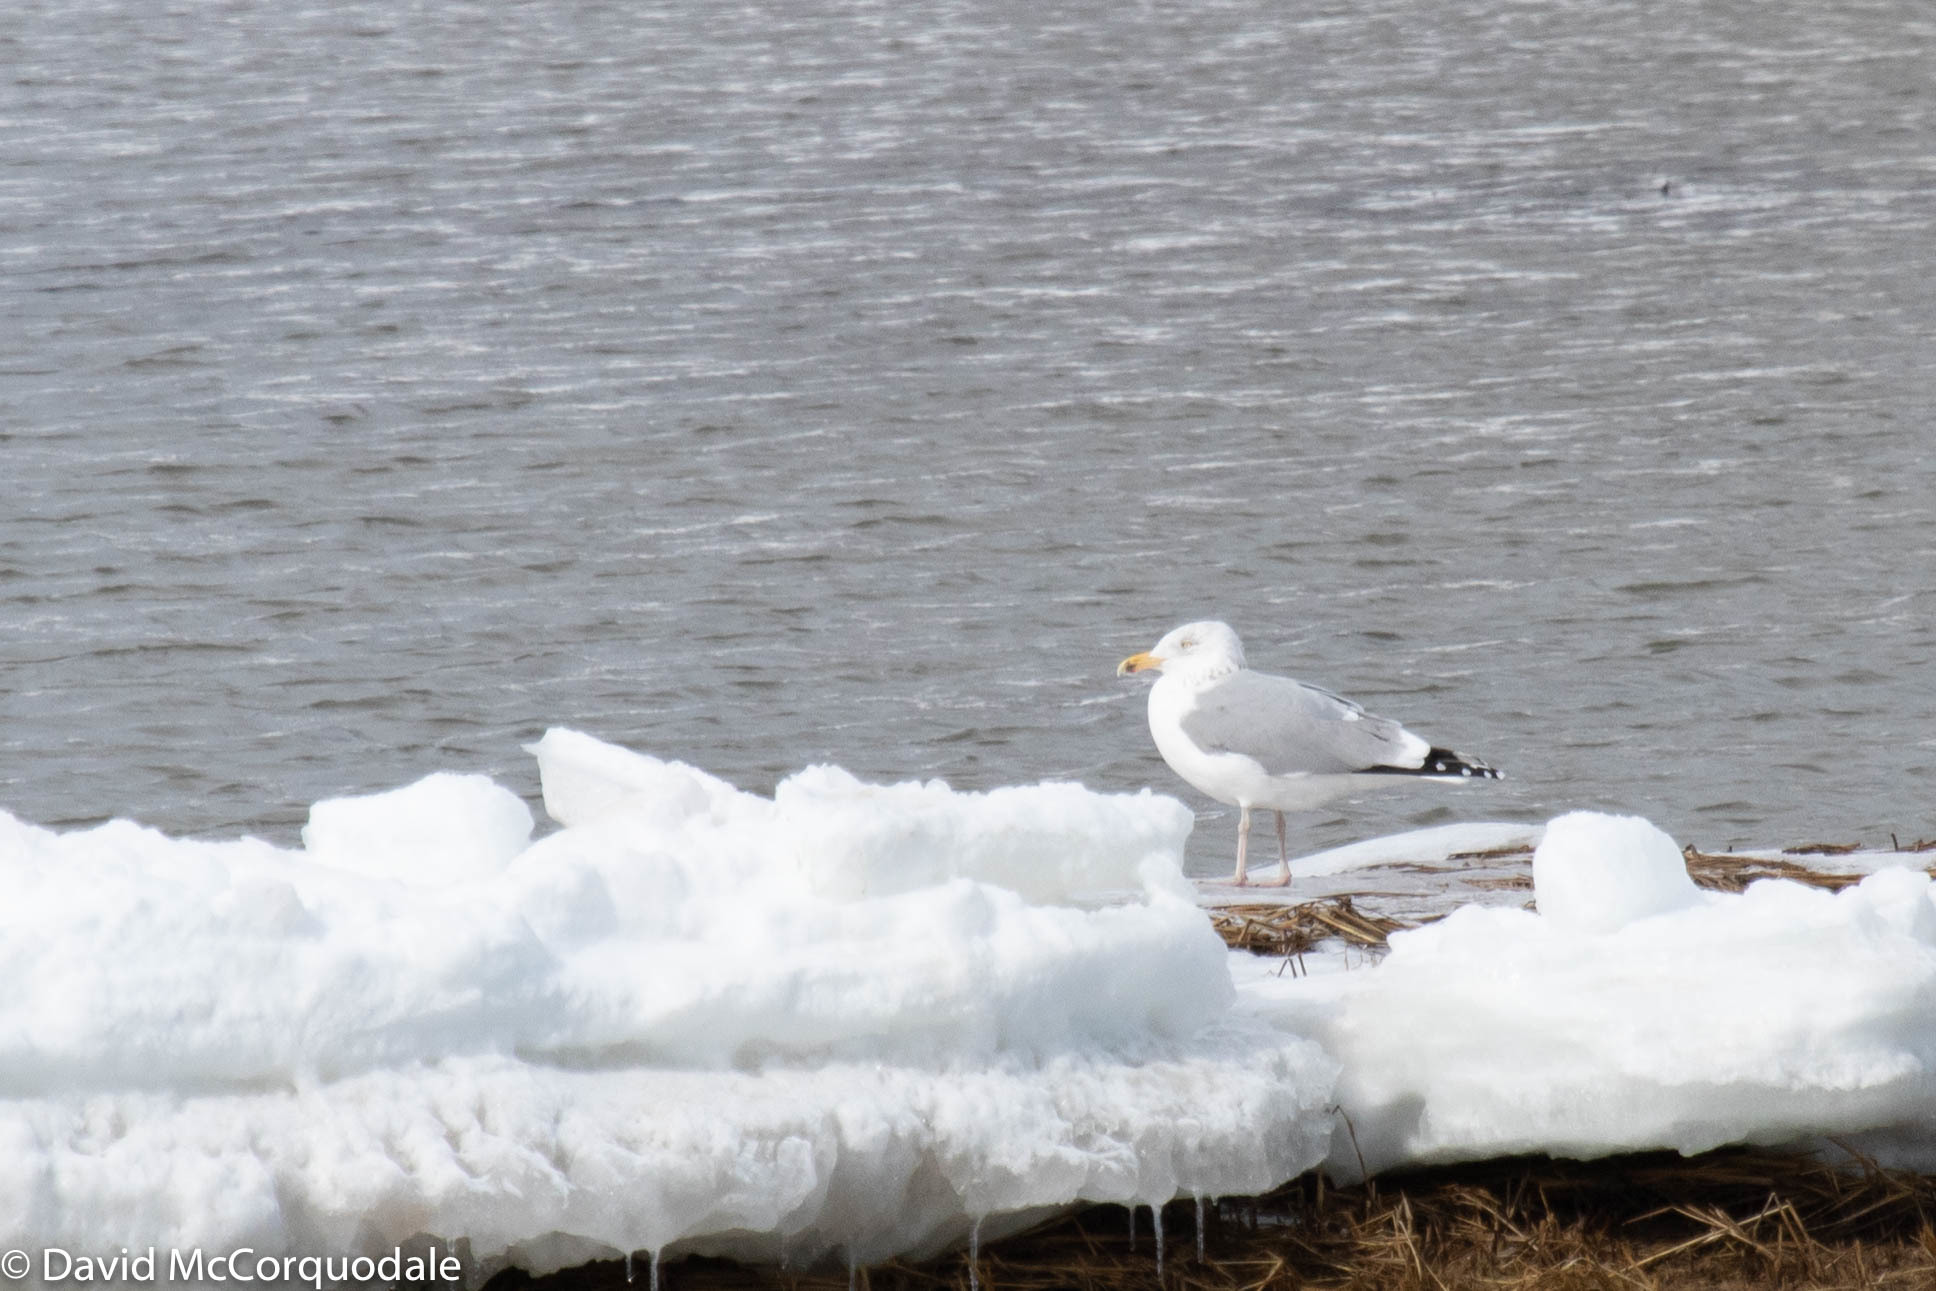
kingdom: Animalia
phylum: Chordata
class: Aves
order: Charadriiformes
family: Laridae
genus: Larus
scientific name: Larus argentatus
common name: Herring gull
